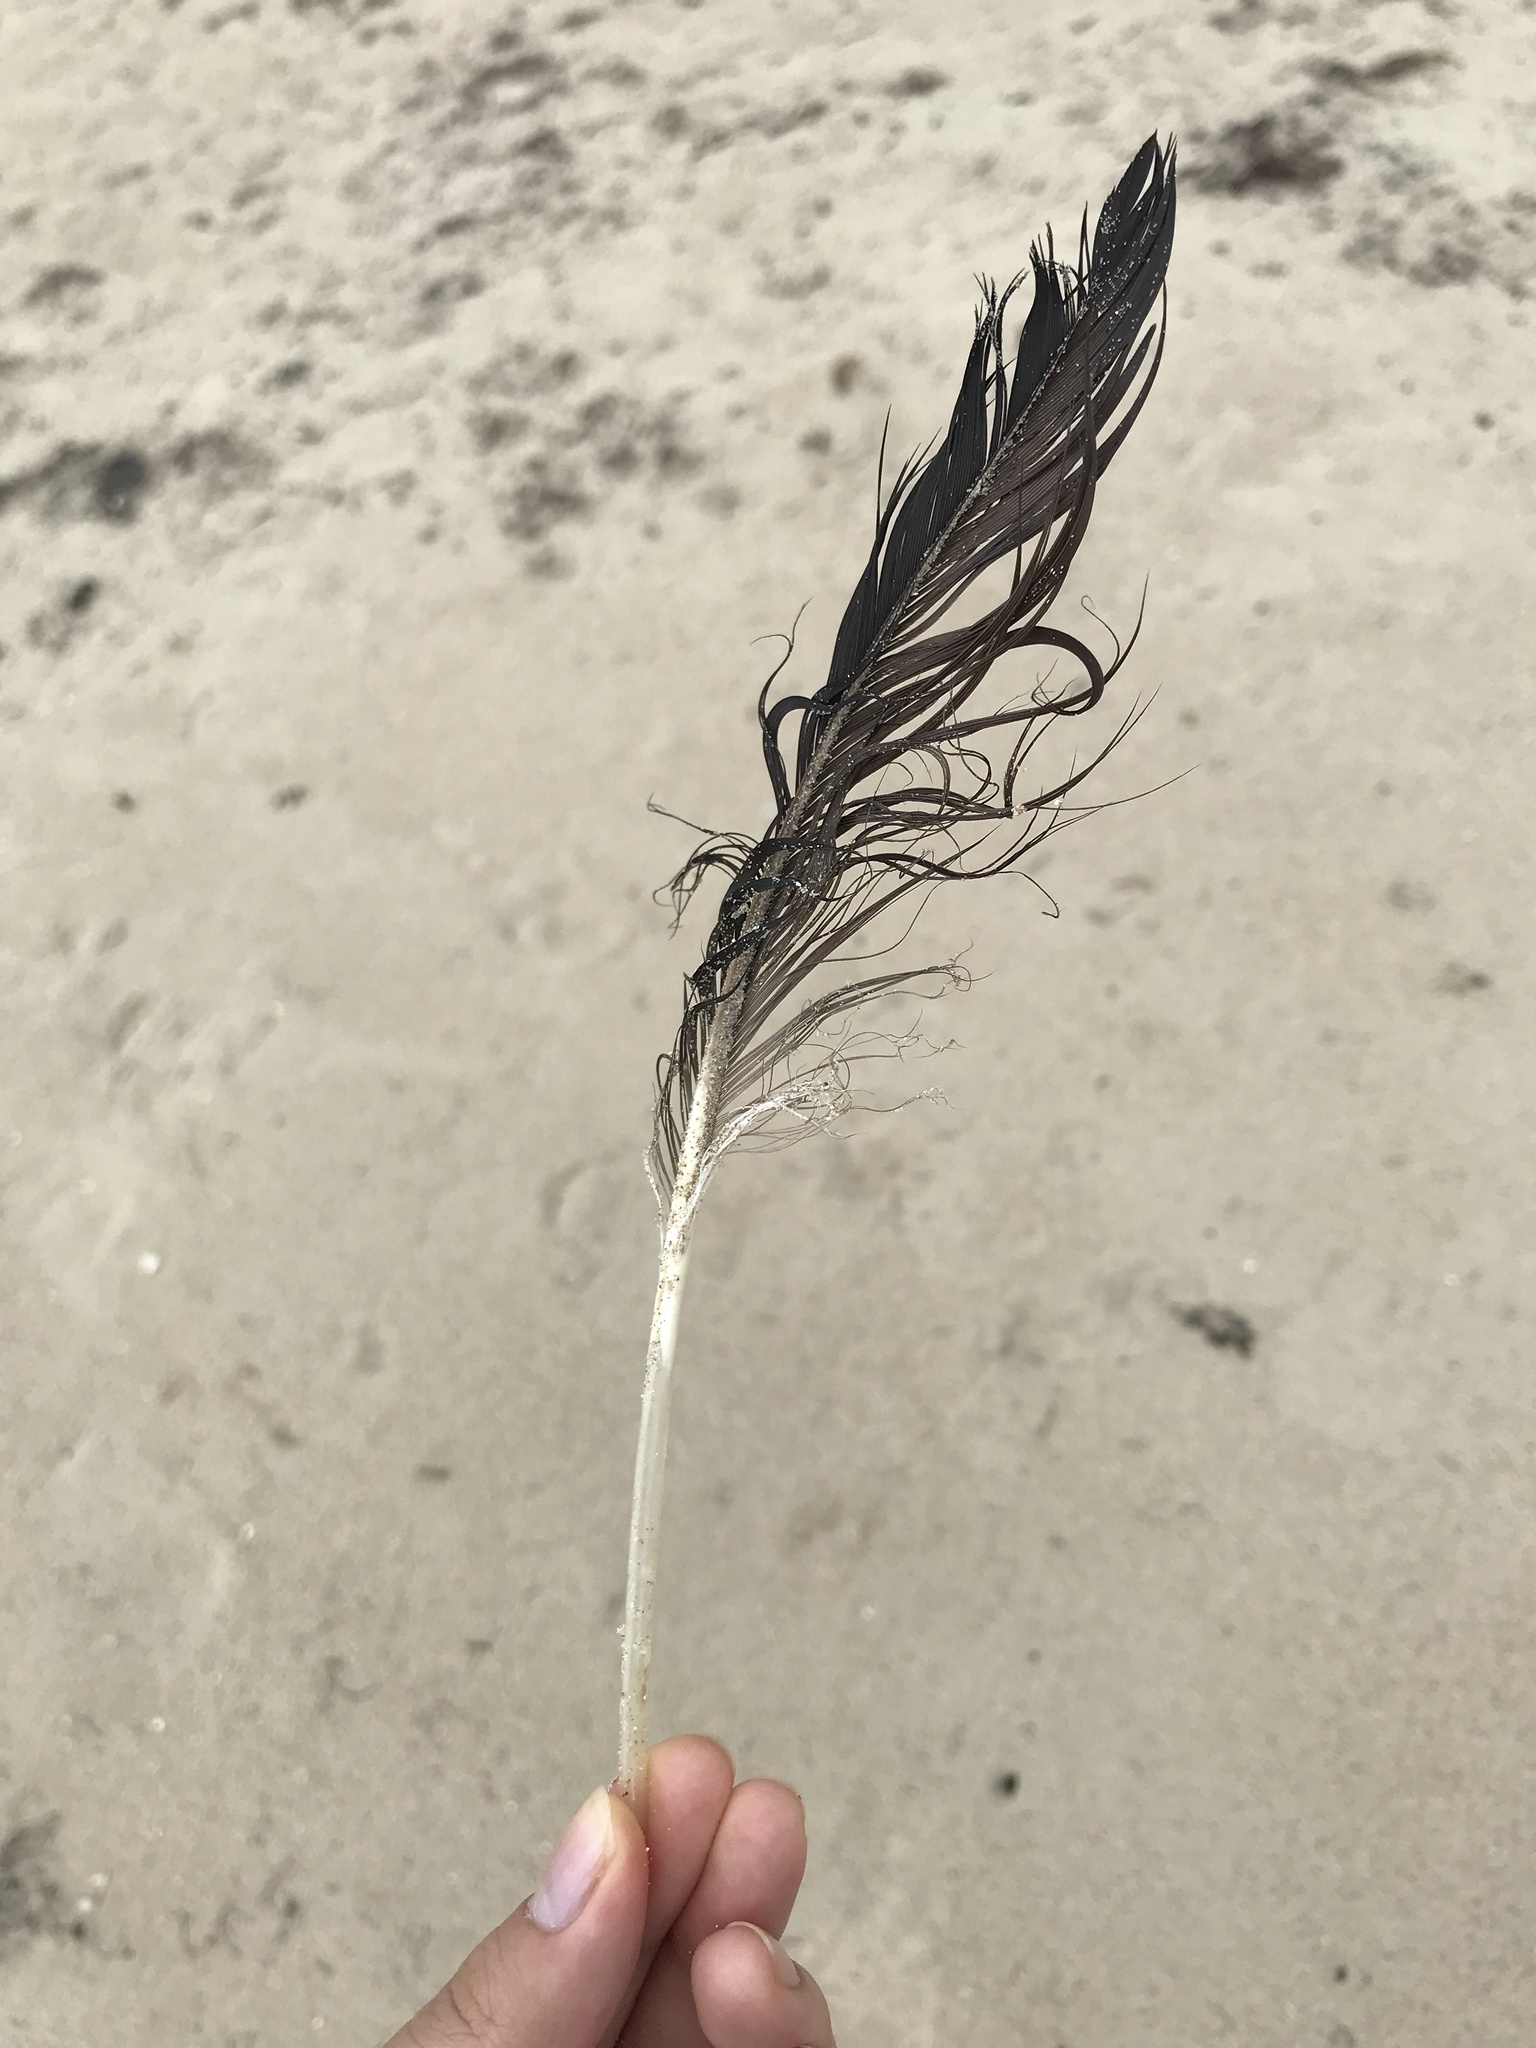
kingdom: Animalia
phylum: Chordata
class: Aves
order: Suliformes
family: Fregatidae
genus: Fregata
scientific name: Fregata magnificens
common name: Magnificent frigatebird
